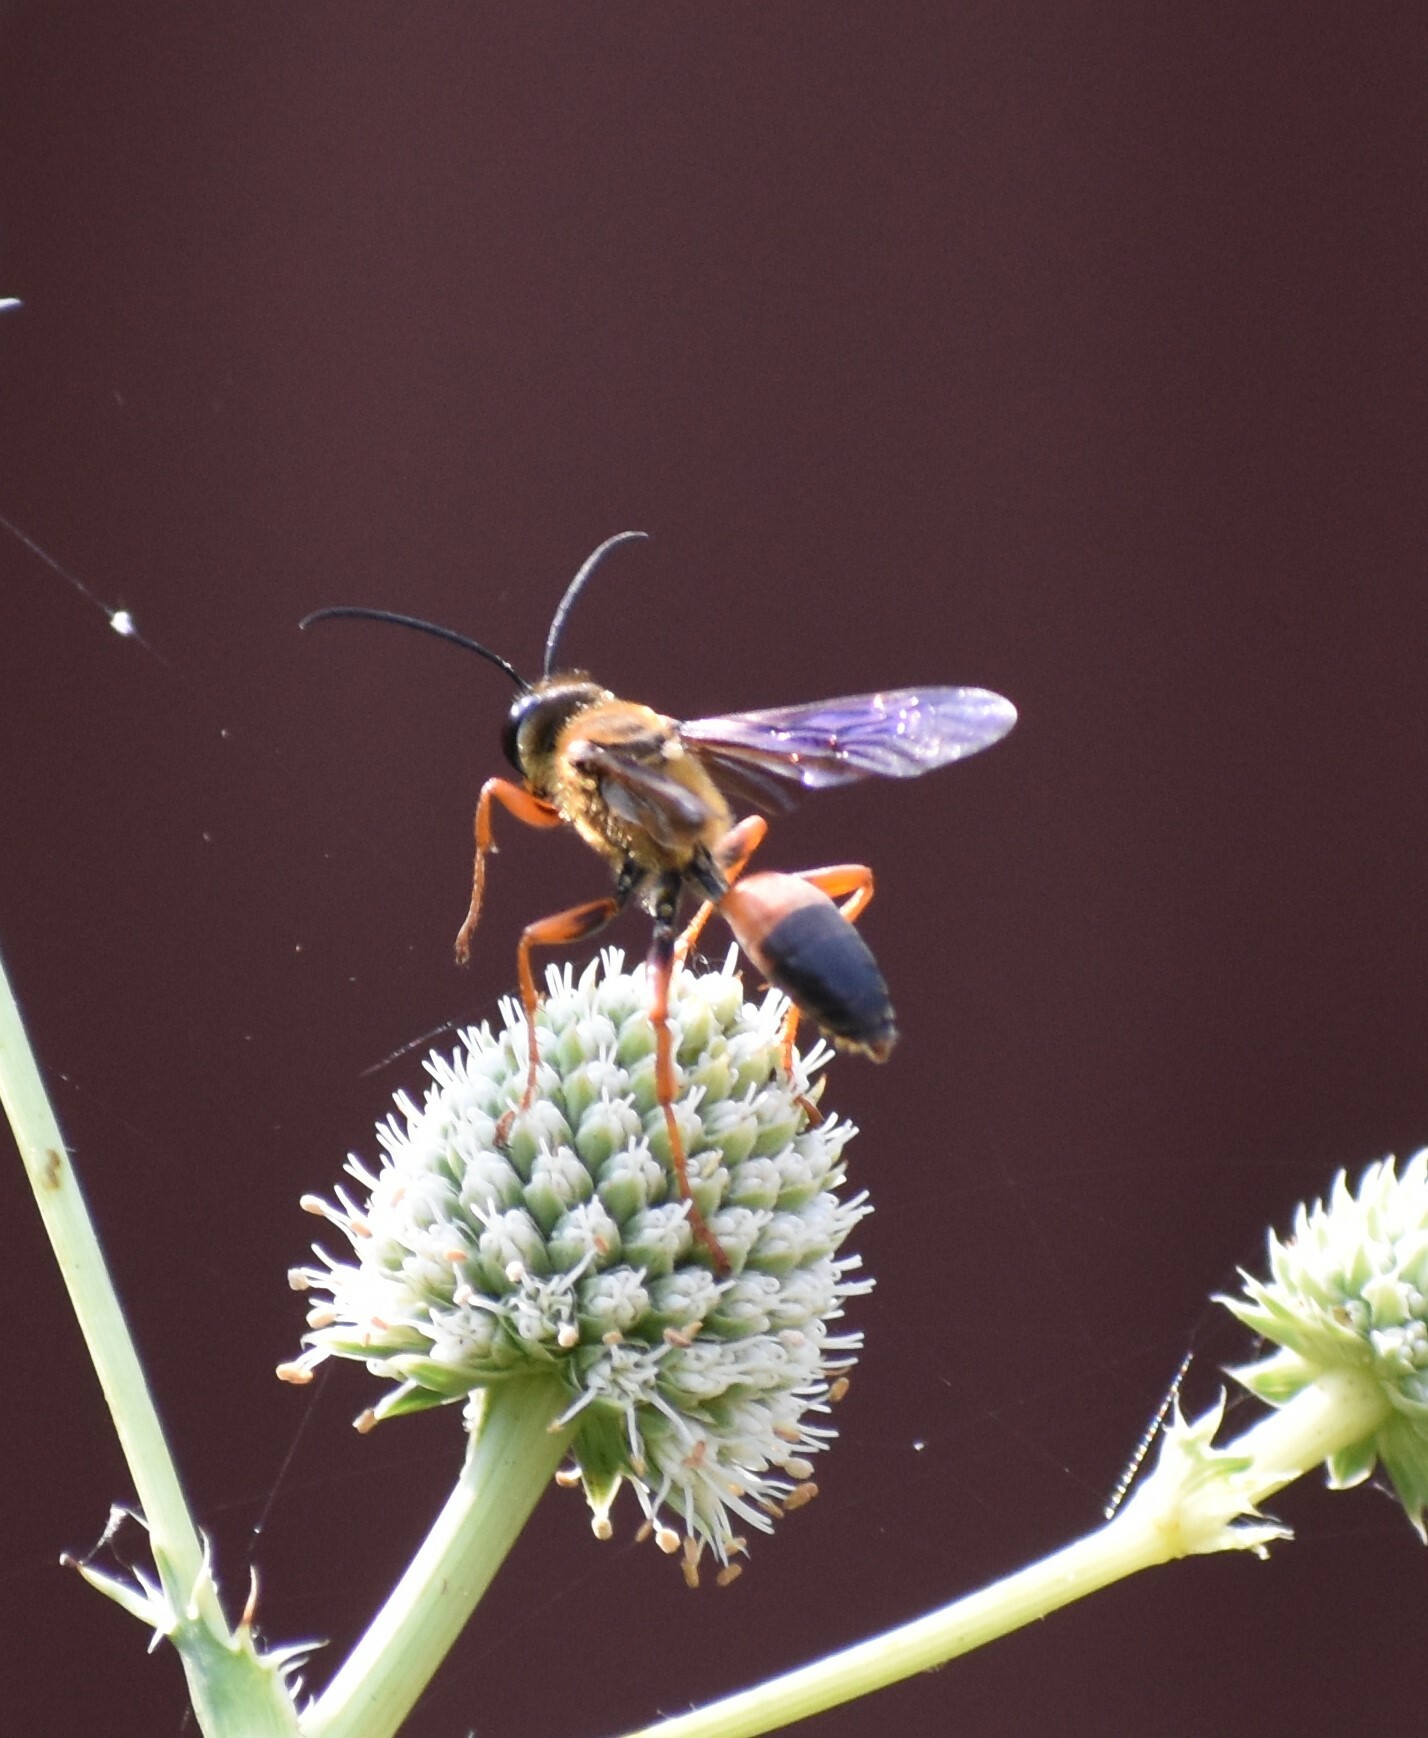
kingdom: Animalia
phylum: Arthropoda
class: Insecta
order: Hymenoptera
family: Sphecidae
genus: Sphex
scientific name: Sphex ichneumoneus
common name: Great golden digger wasp
